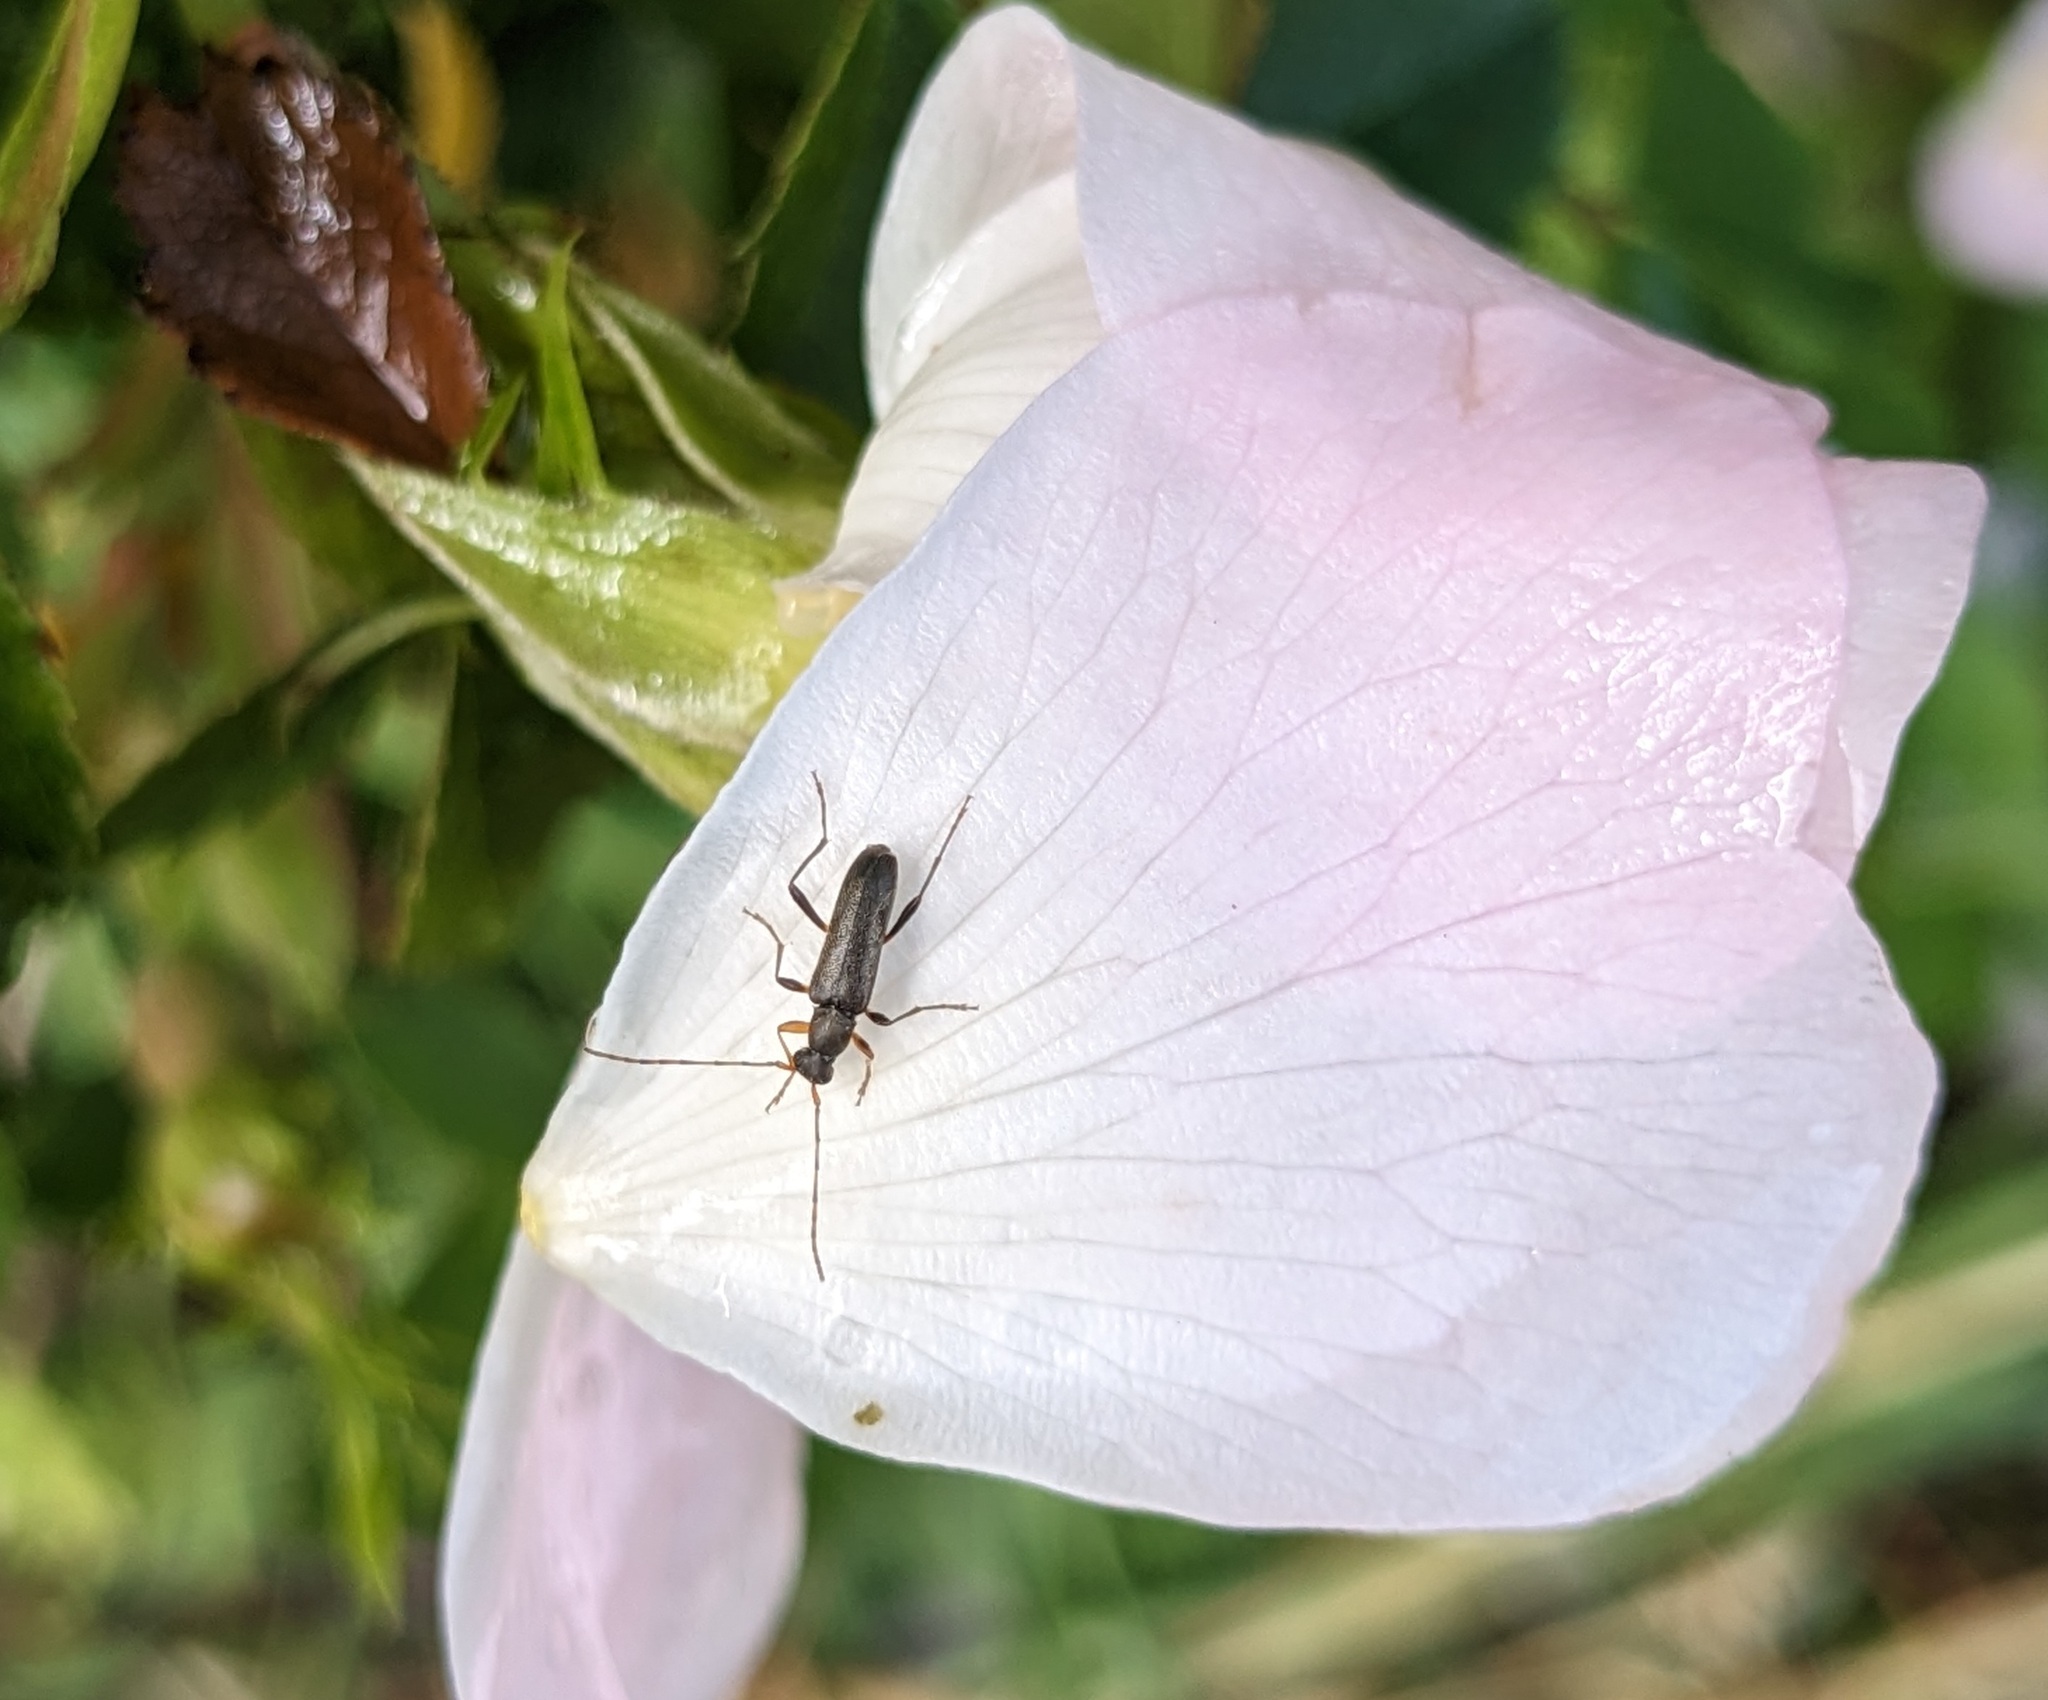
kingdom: Animalia
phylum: Arthropoda
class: Insecta
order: Coleoptera
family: Cerambycidae
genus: Grammoptera
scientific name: Grammoptera ruficornis
